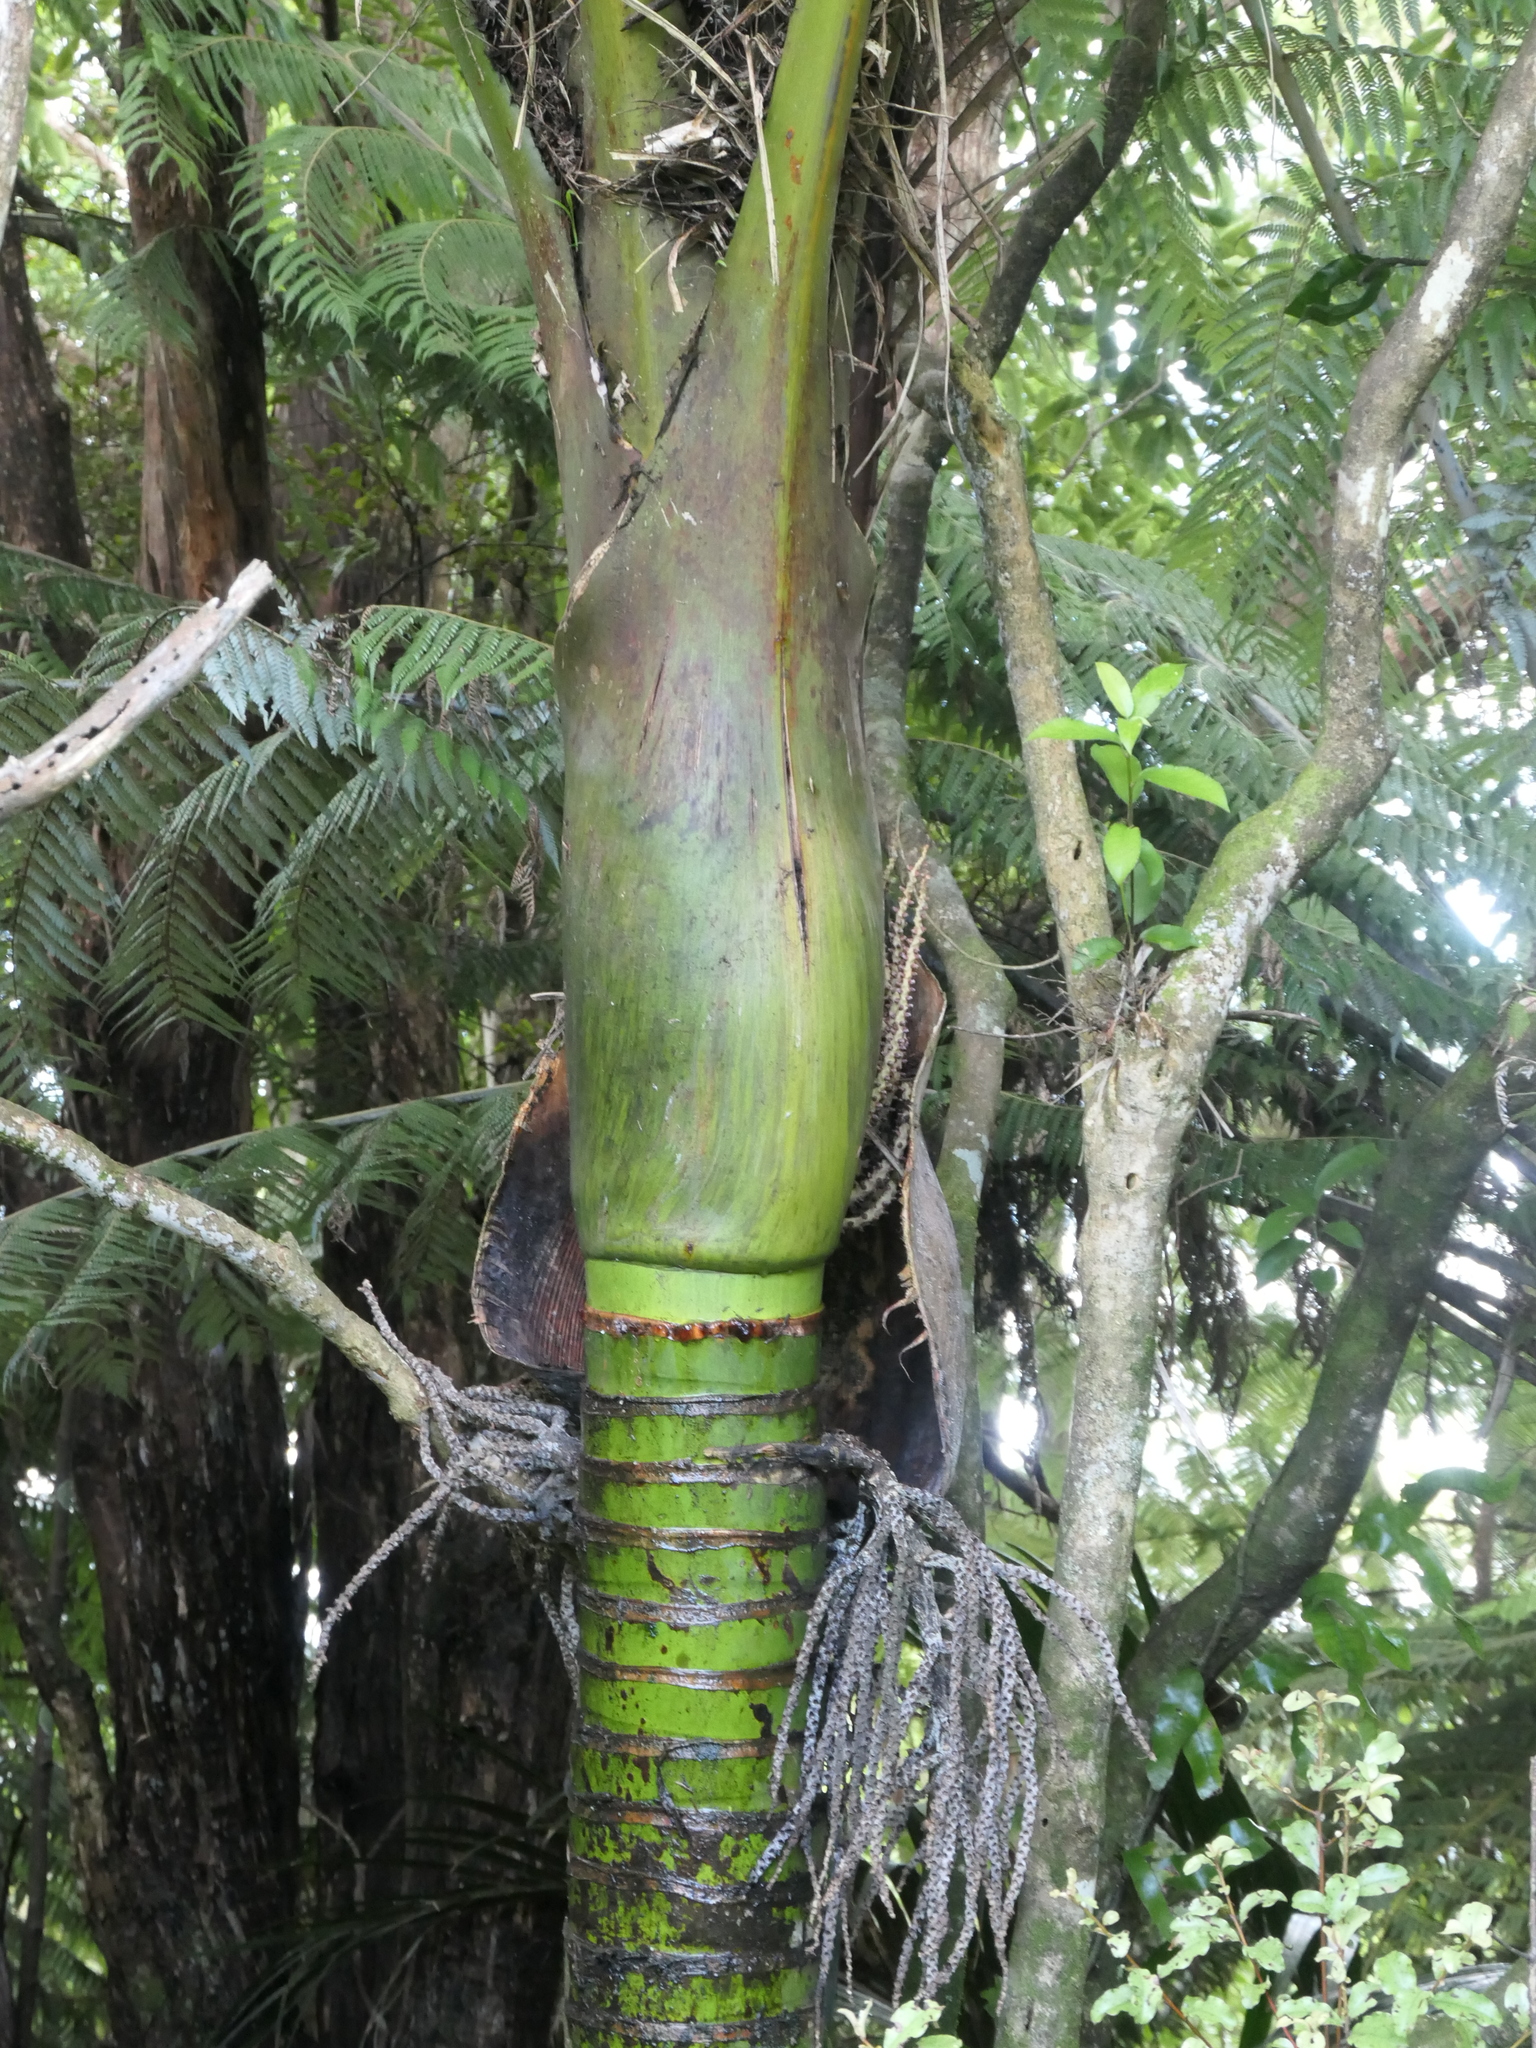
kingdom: Plantae
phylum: Tracheophyta
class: Liliopsida
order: Arecales
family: Arecaceae
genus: Rhopalostylis
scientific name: Rhopalostylis sapida
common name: Feather-duster palm
